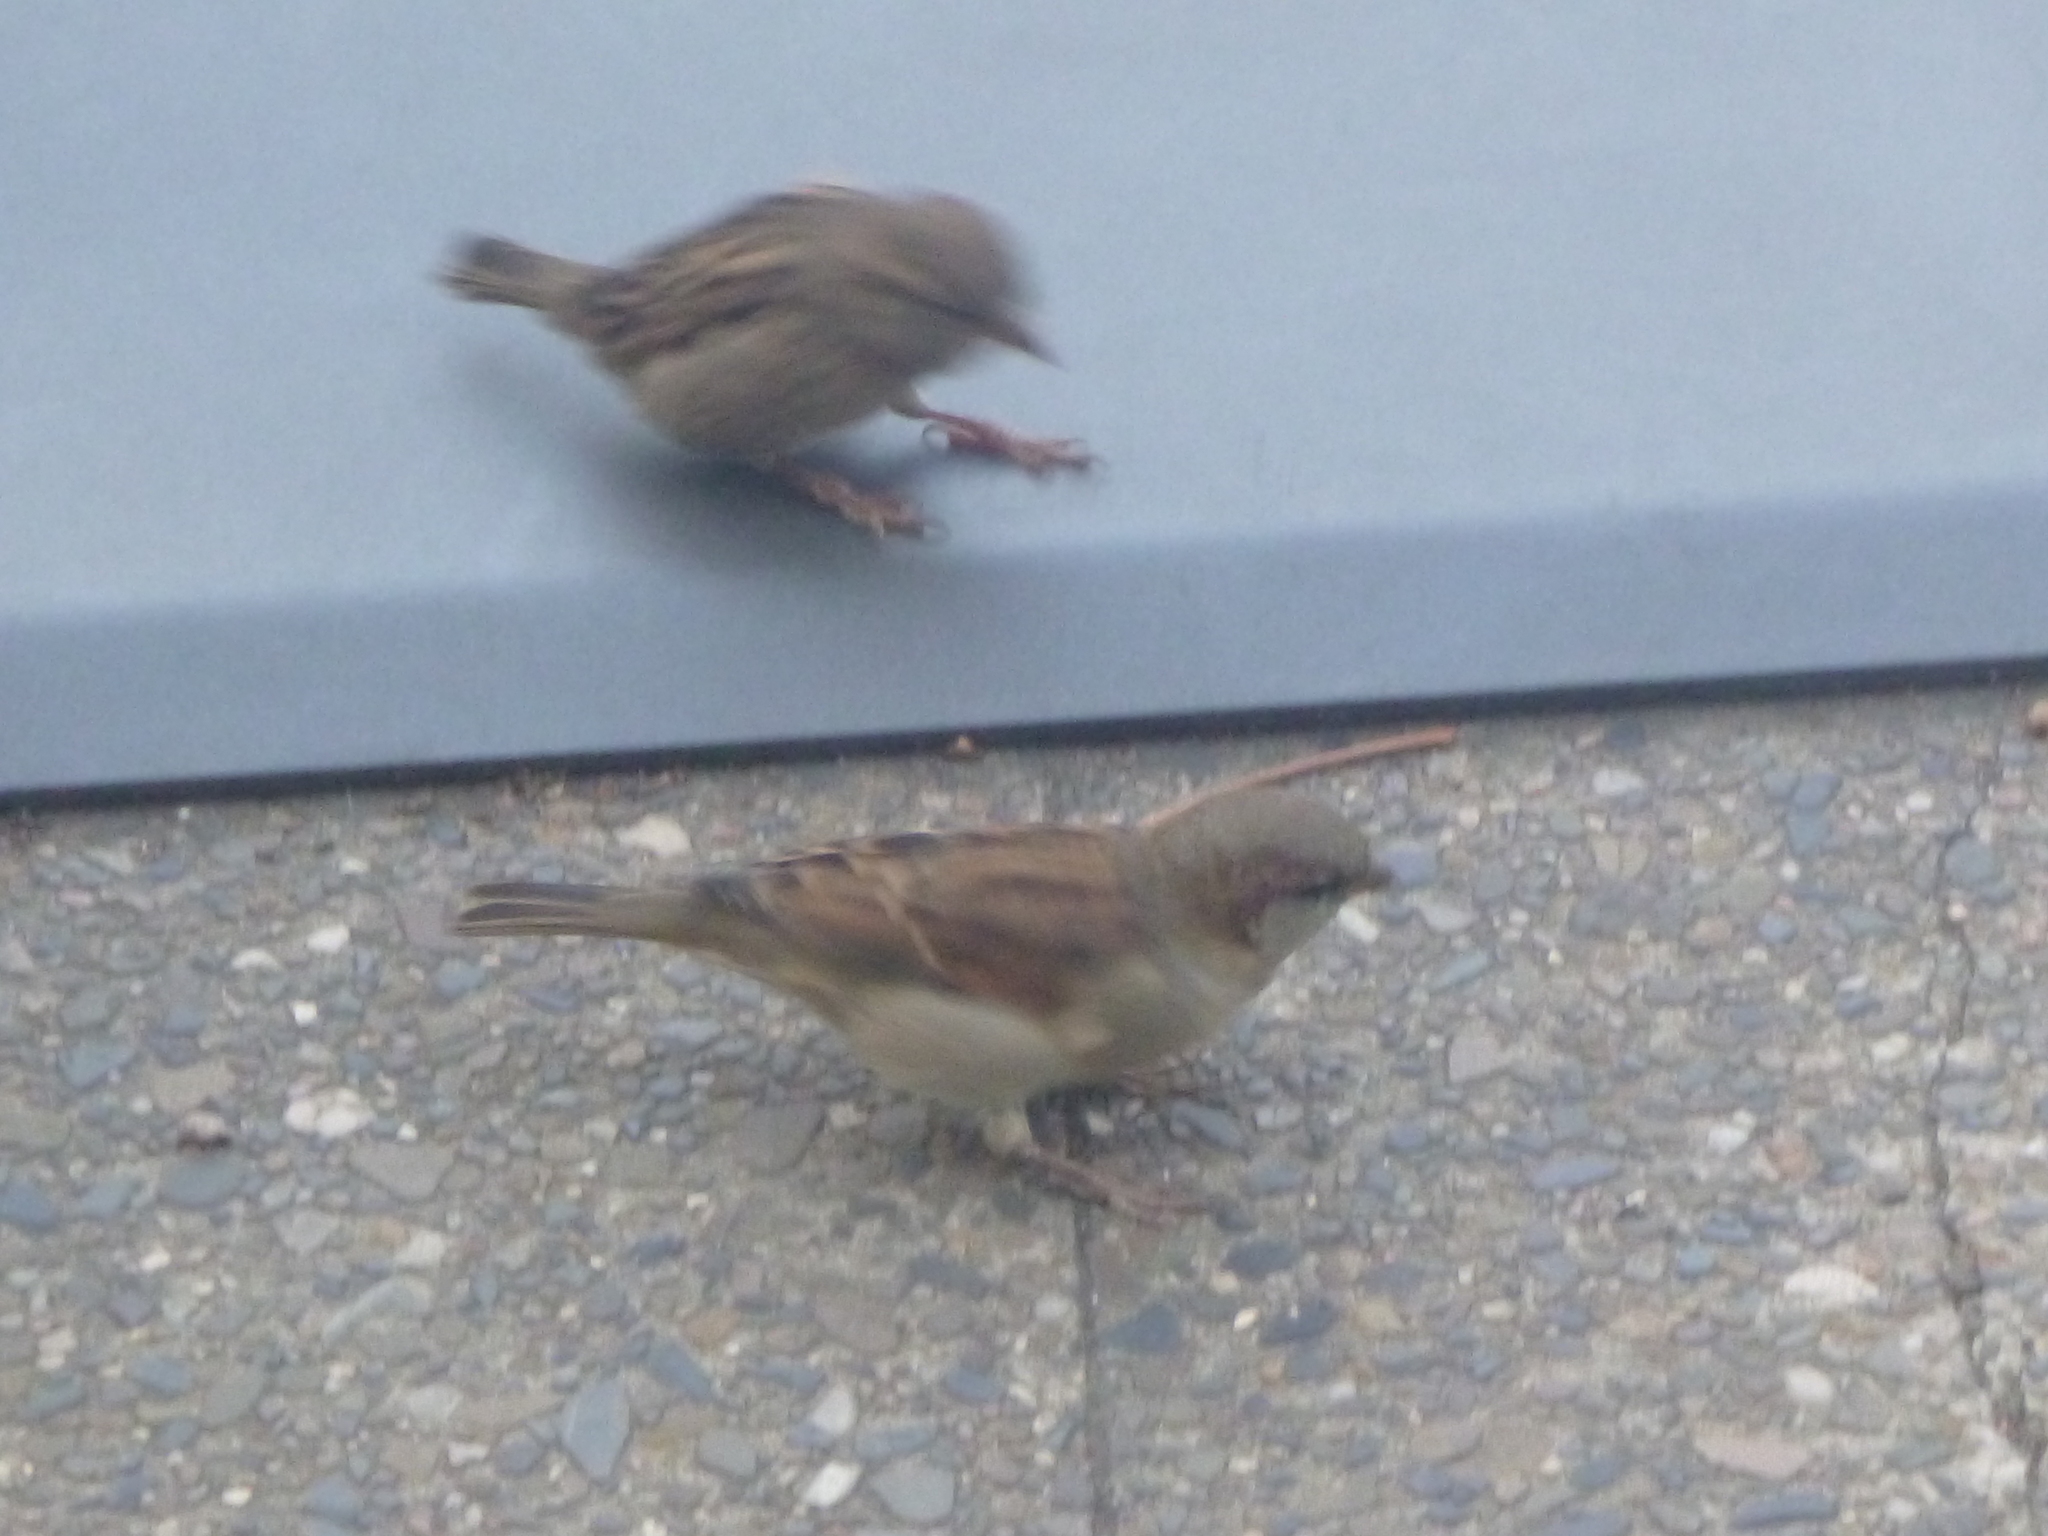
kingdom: Animalia
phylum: Chordata
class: Aves
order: Passeriformes
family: Passeridae
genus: Passer
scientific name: Passer domesticus
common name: House sparrow
